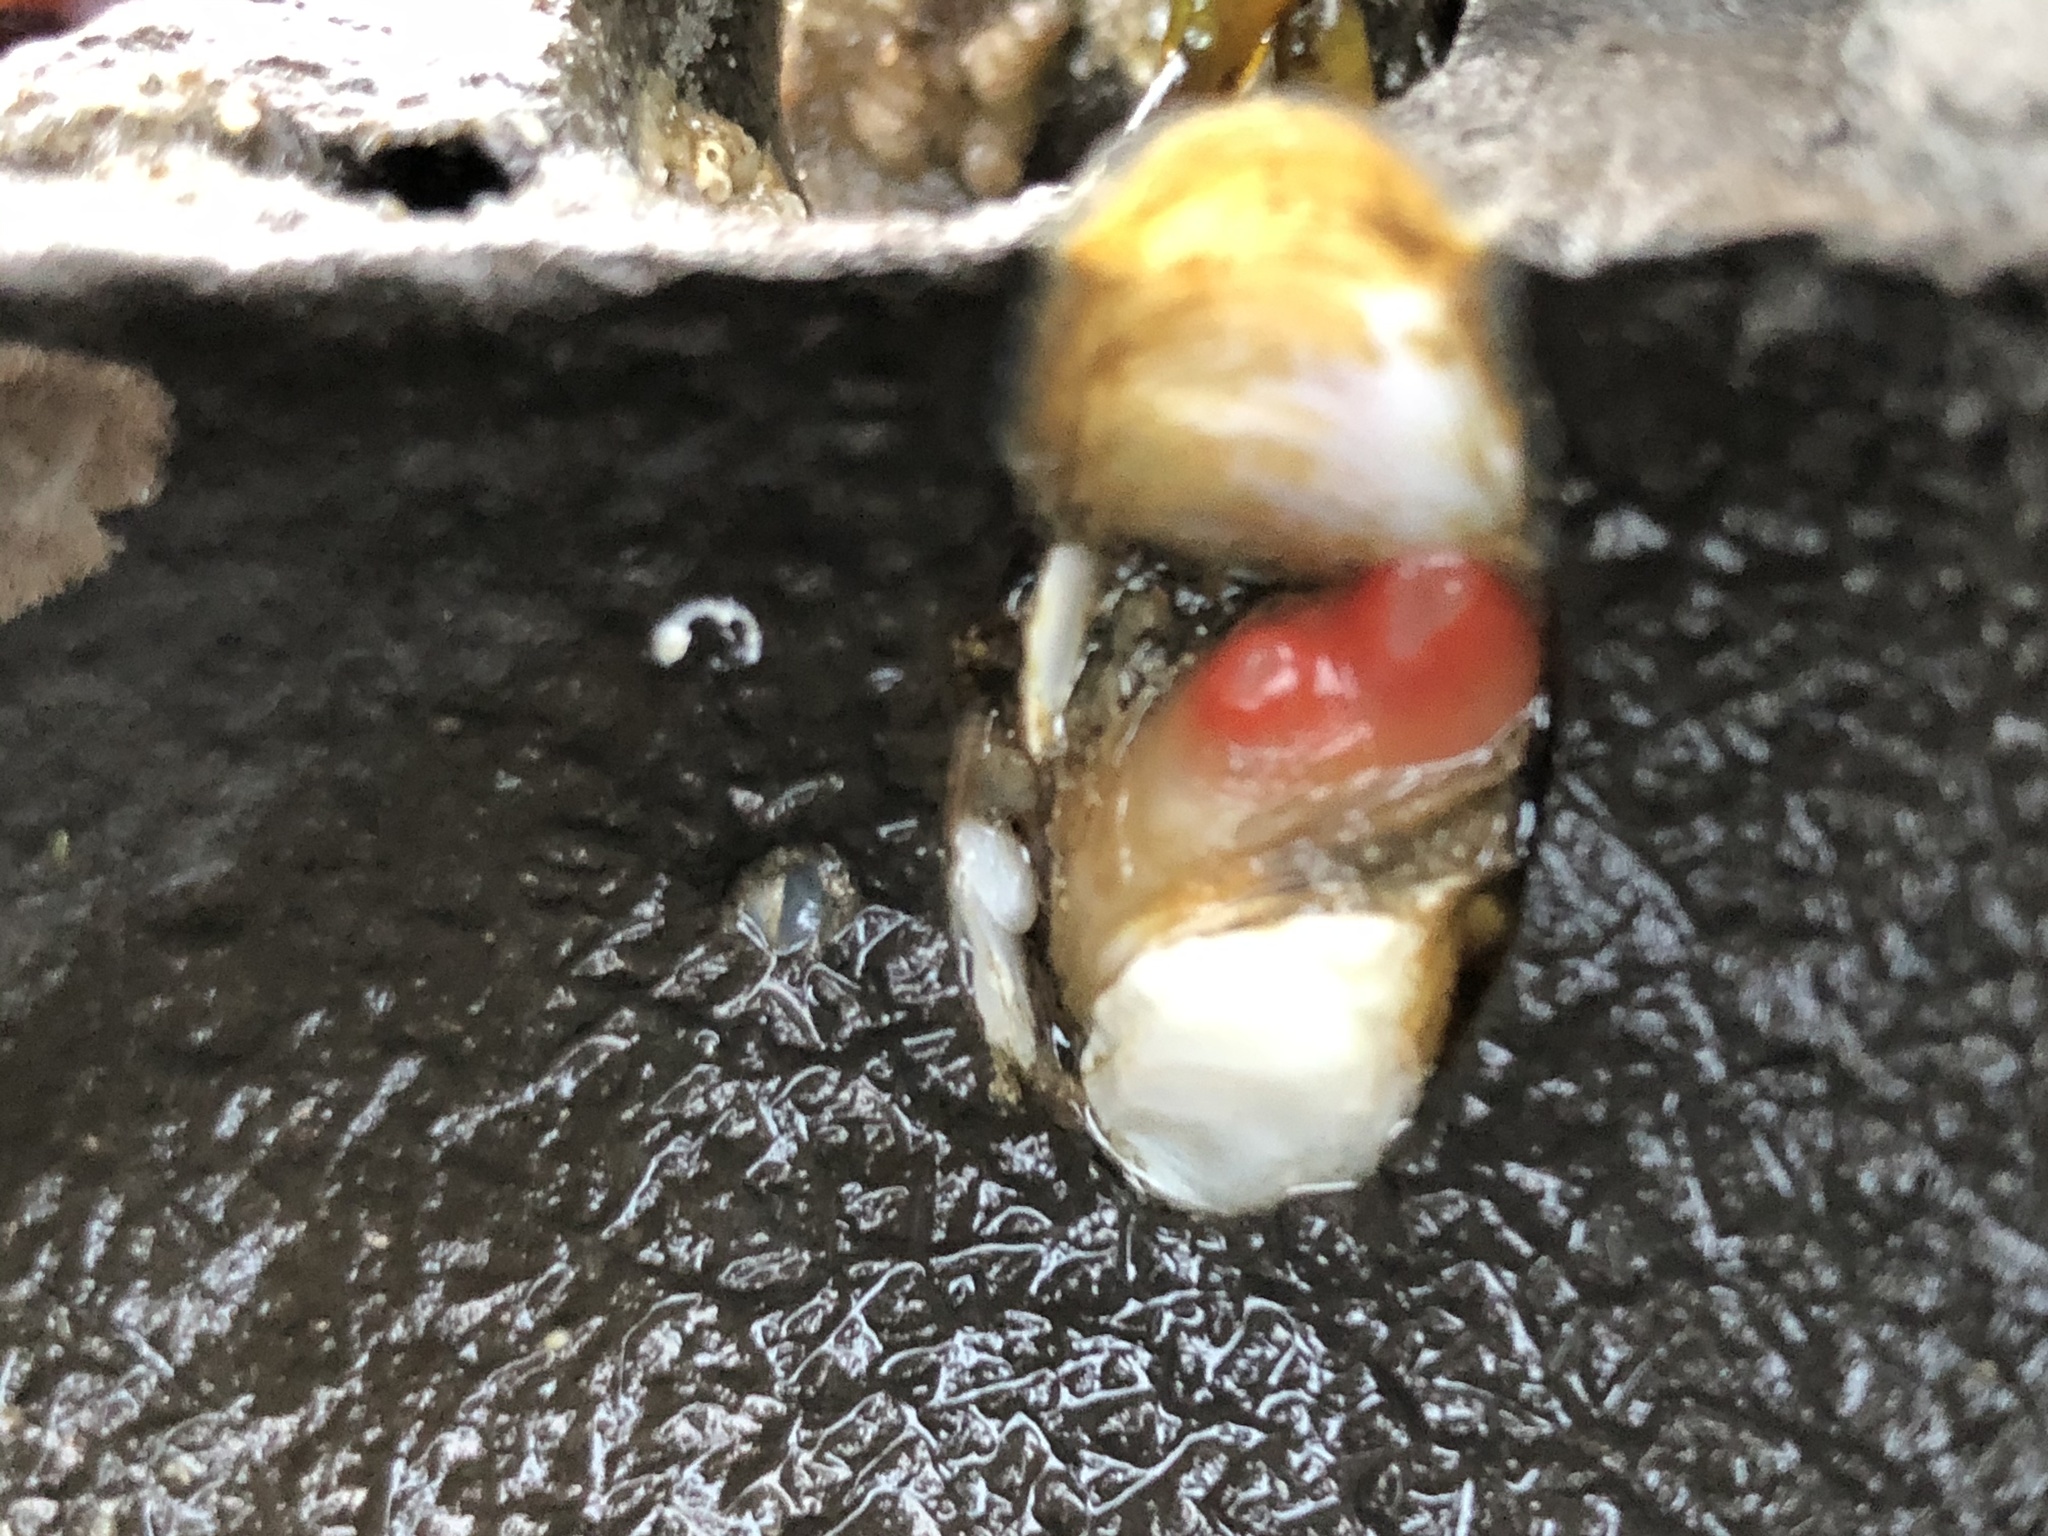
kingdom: Animalia
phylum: Mollusca
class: Bivalvia
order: Adapedonta
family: Hiatellidae
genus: Hiatella
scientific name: Hiatella arctica
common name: Arctic hiatella
